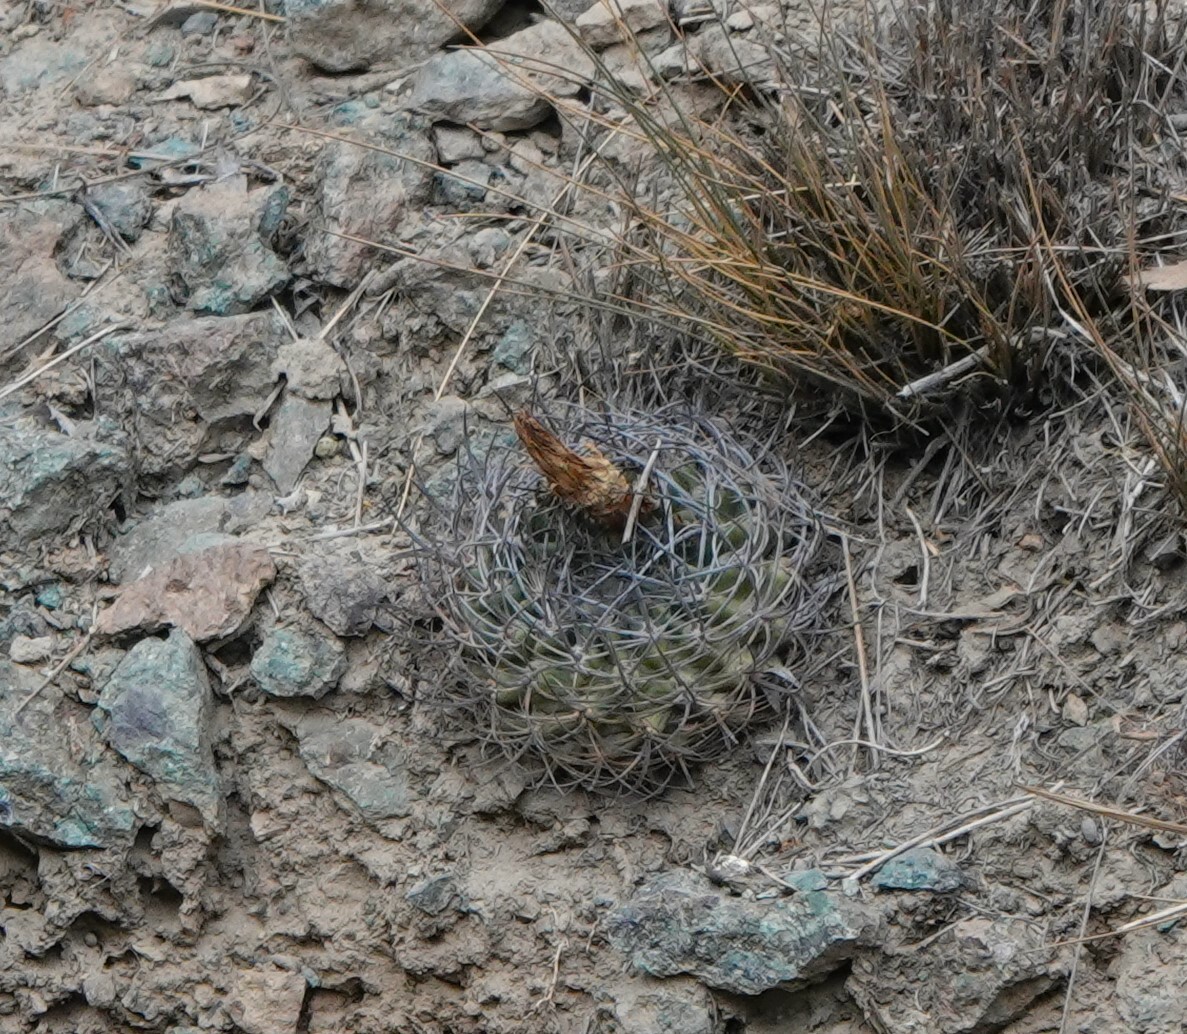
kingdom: Plantae
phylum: Tracheophyta
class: Magnoliopsida
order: Caryophyllales
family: Cactaceae
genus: Eriosyce
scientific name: Eriosyce curvispina
